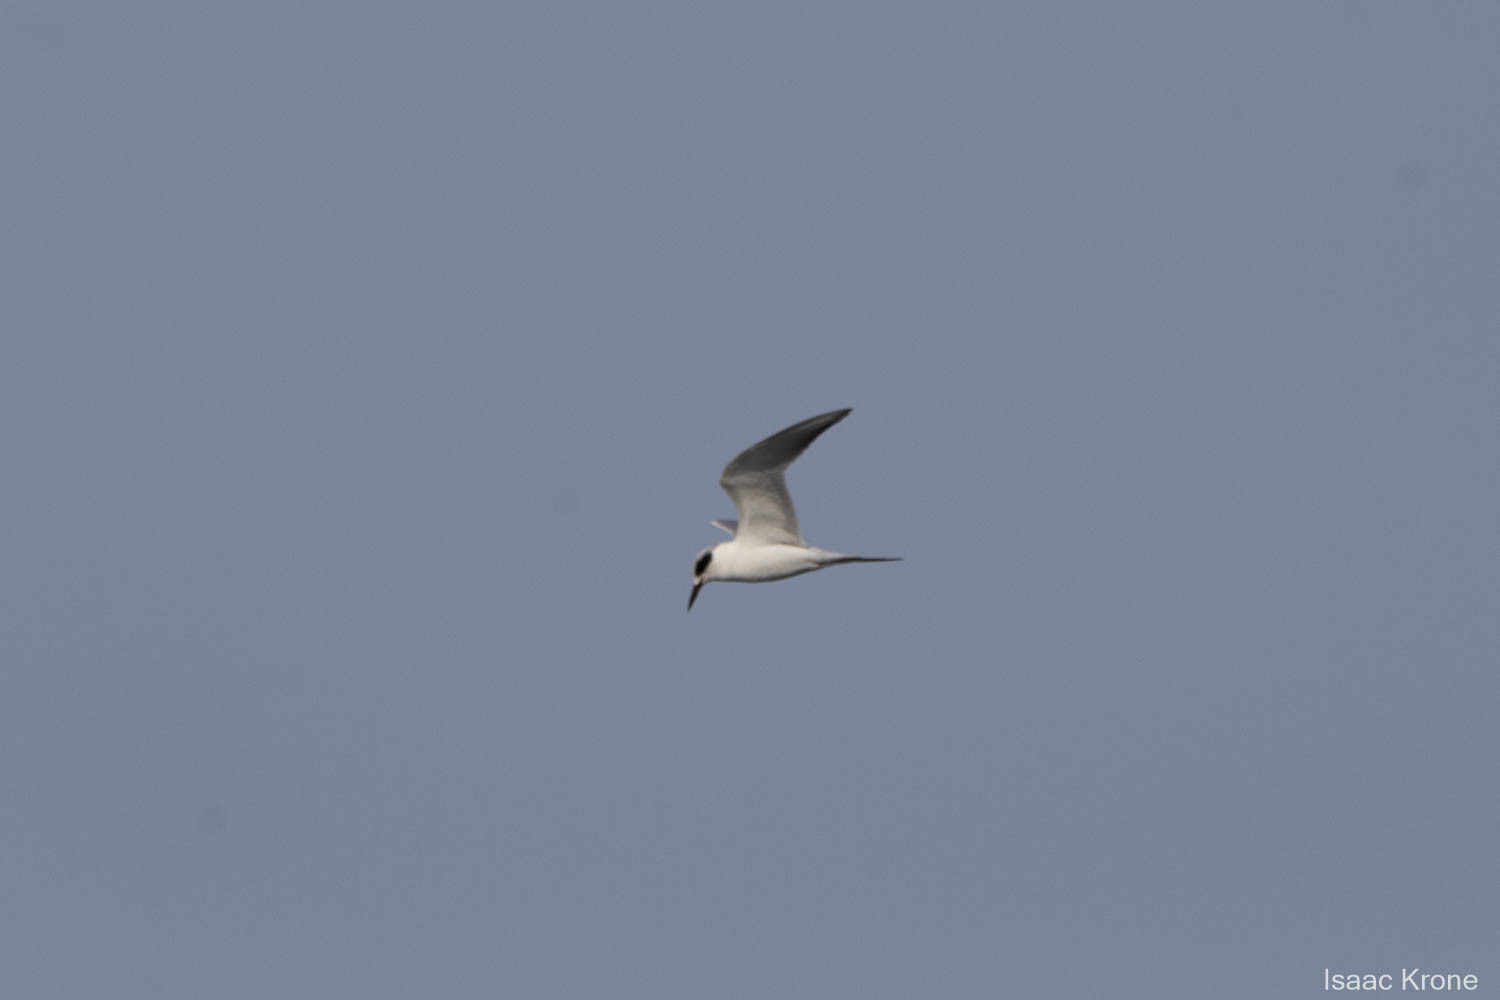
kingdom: Animalia
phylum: Chordata
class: Aves
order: Charadriiformes
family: Laridae
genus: Sterna
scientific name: Sterna forsteri
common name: Forster's tern
